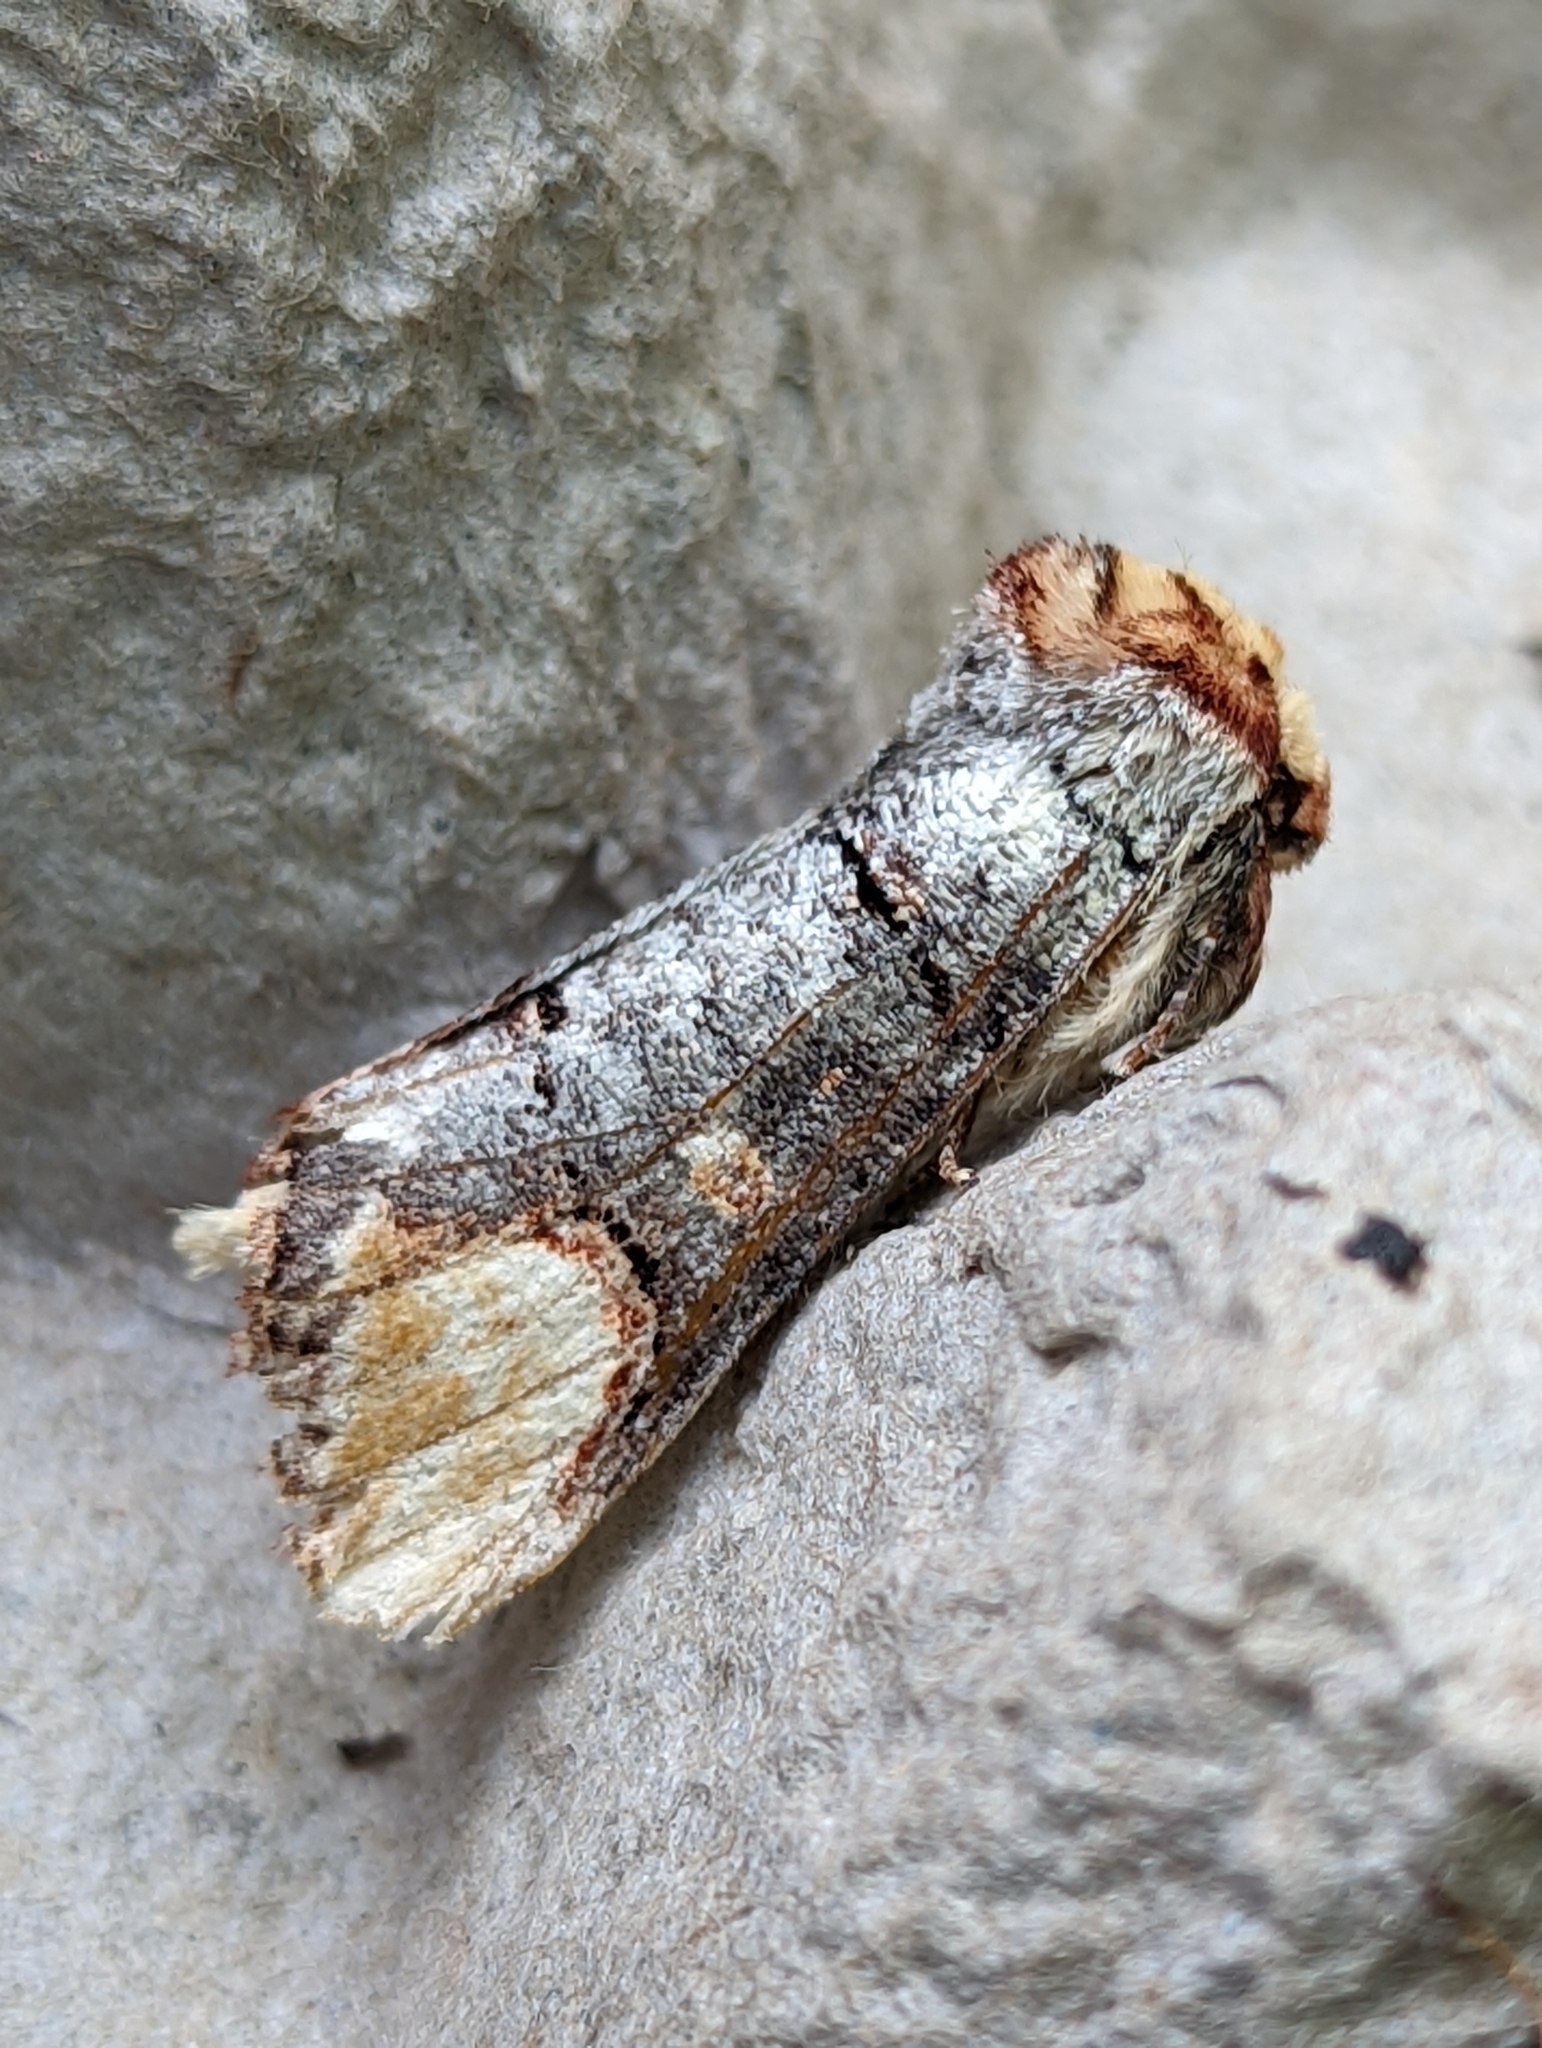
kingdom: Animalia
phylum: Arthropoda
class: Insecta
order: Lepidoptera
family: Notodontidae
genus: Phalera
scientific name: Phalera bucephala
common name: Buff-tip
